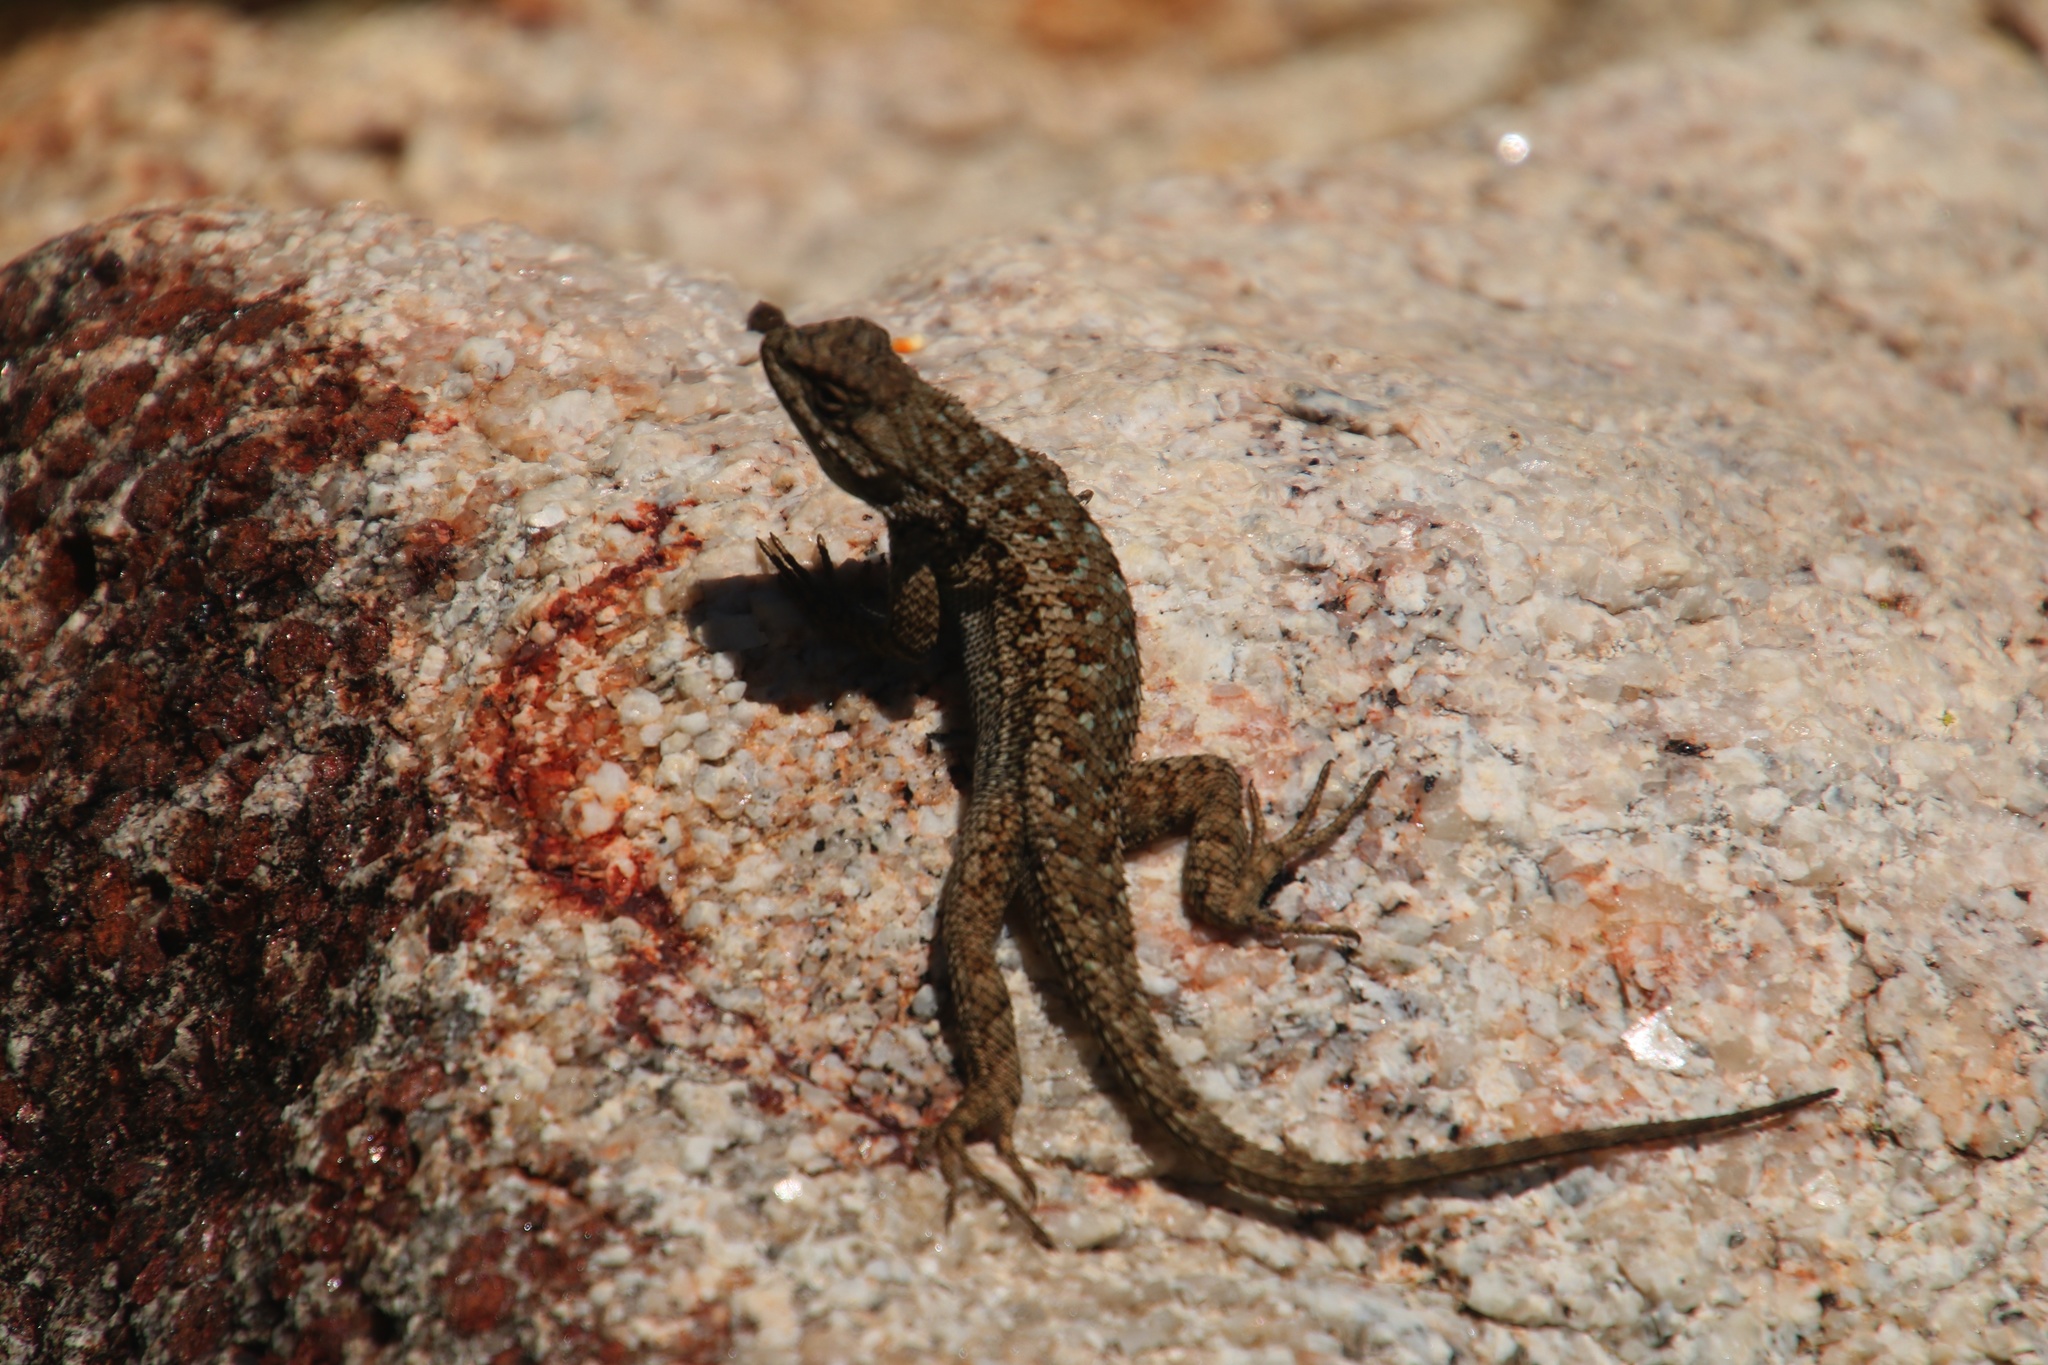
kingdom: Animalia
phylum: Chordata
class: Squamata
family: Phrynosomatidae
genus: Sceloporus
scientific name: Sceloporus occidentalis
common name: Western fence lizard
